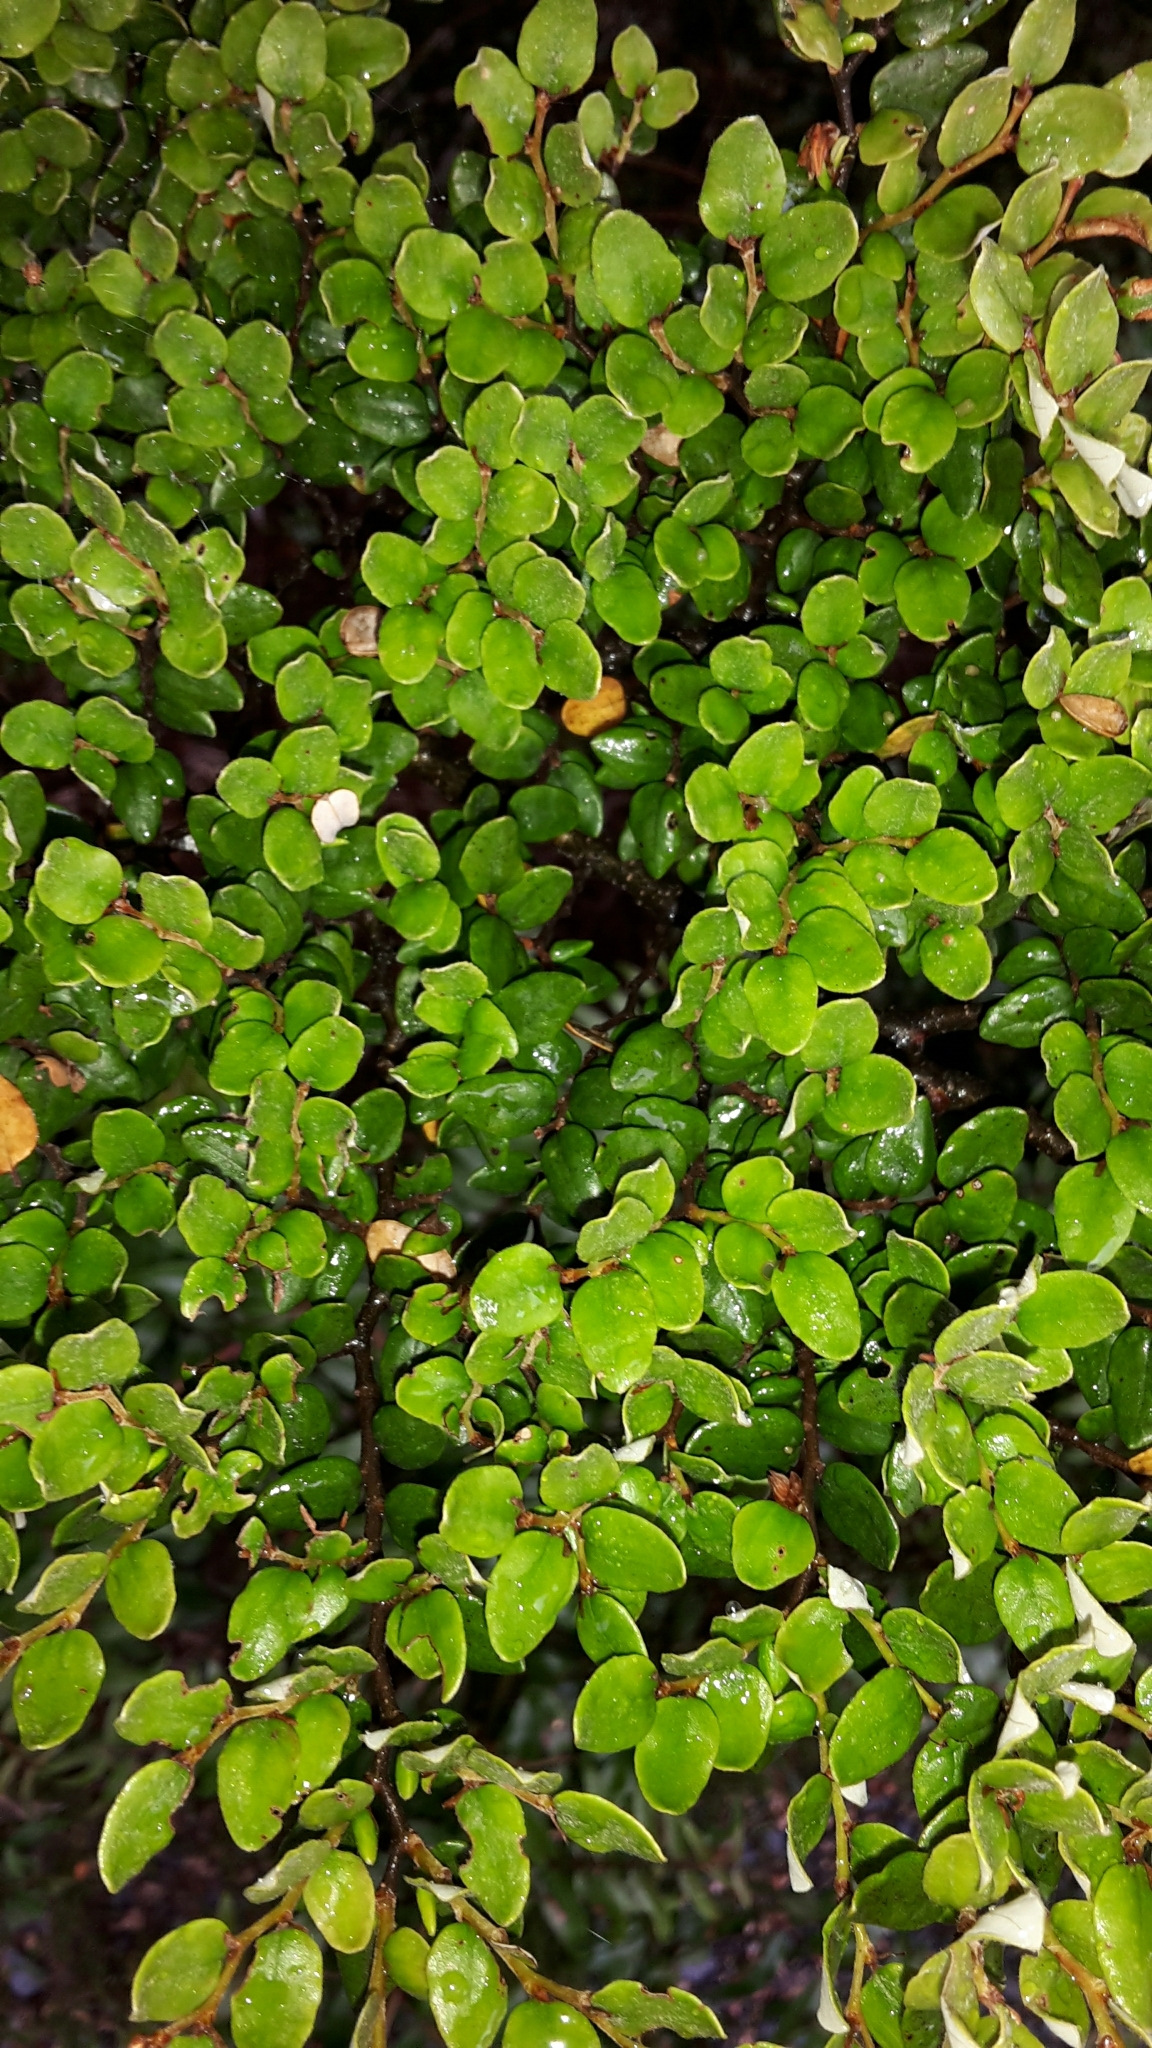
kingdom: Plantae
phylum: Tracheophyta
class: Magnoliopsida
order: Fagales
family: Nothofagaceae
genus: Nothofagus
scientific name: Nothofagus cliffortioides
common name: Mountain beech
